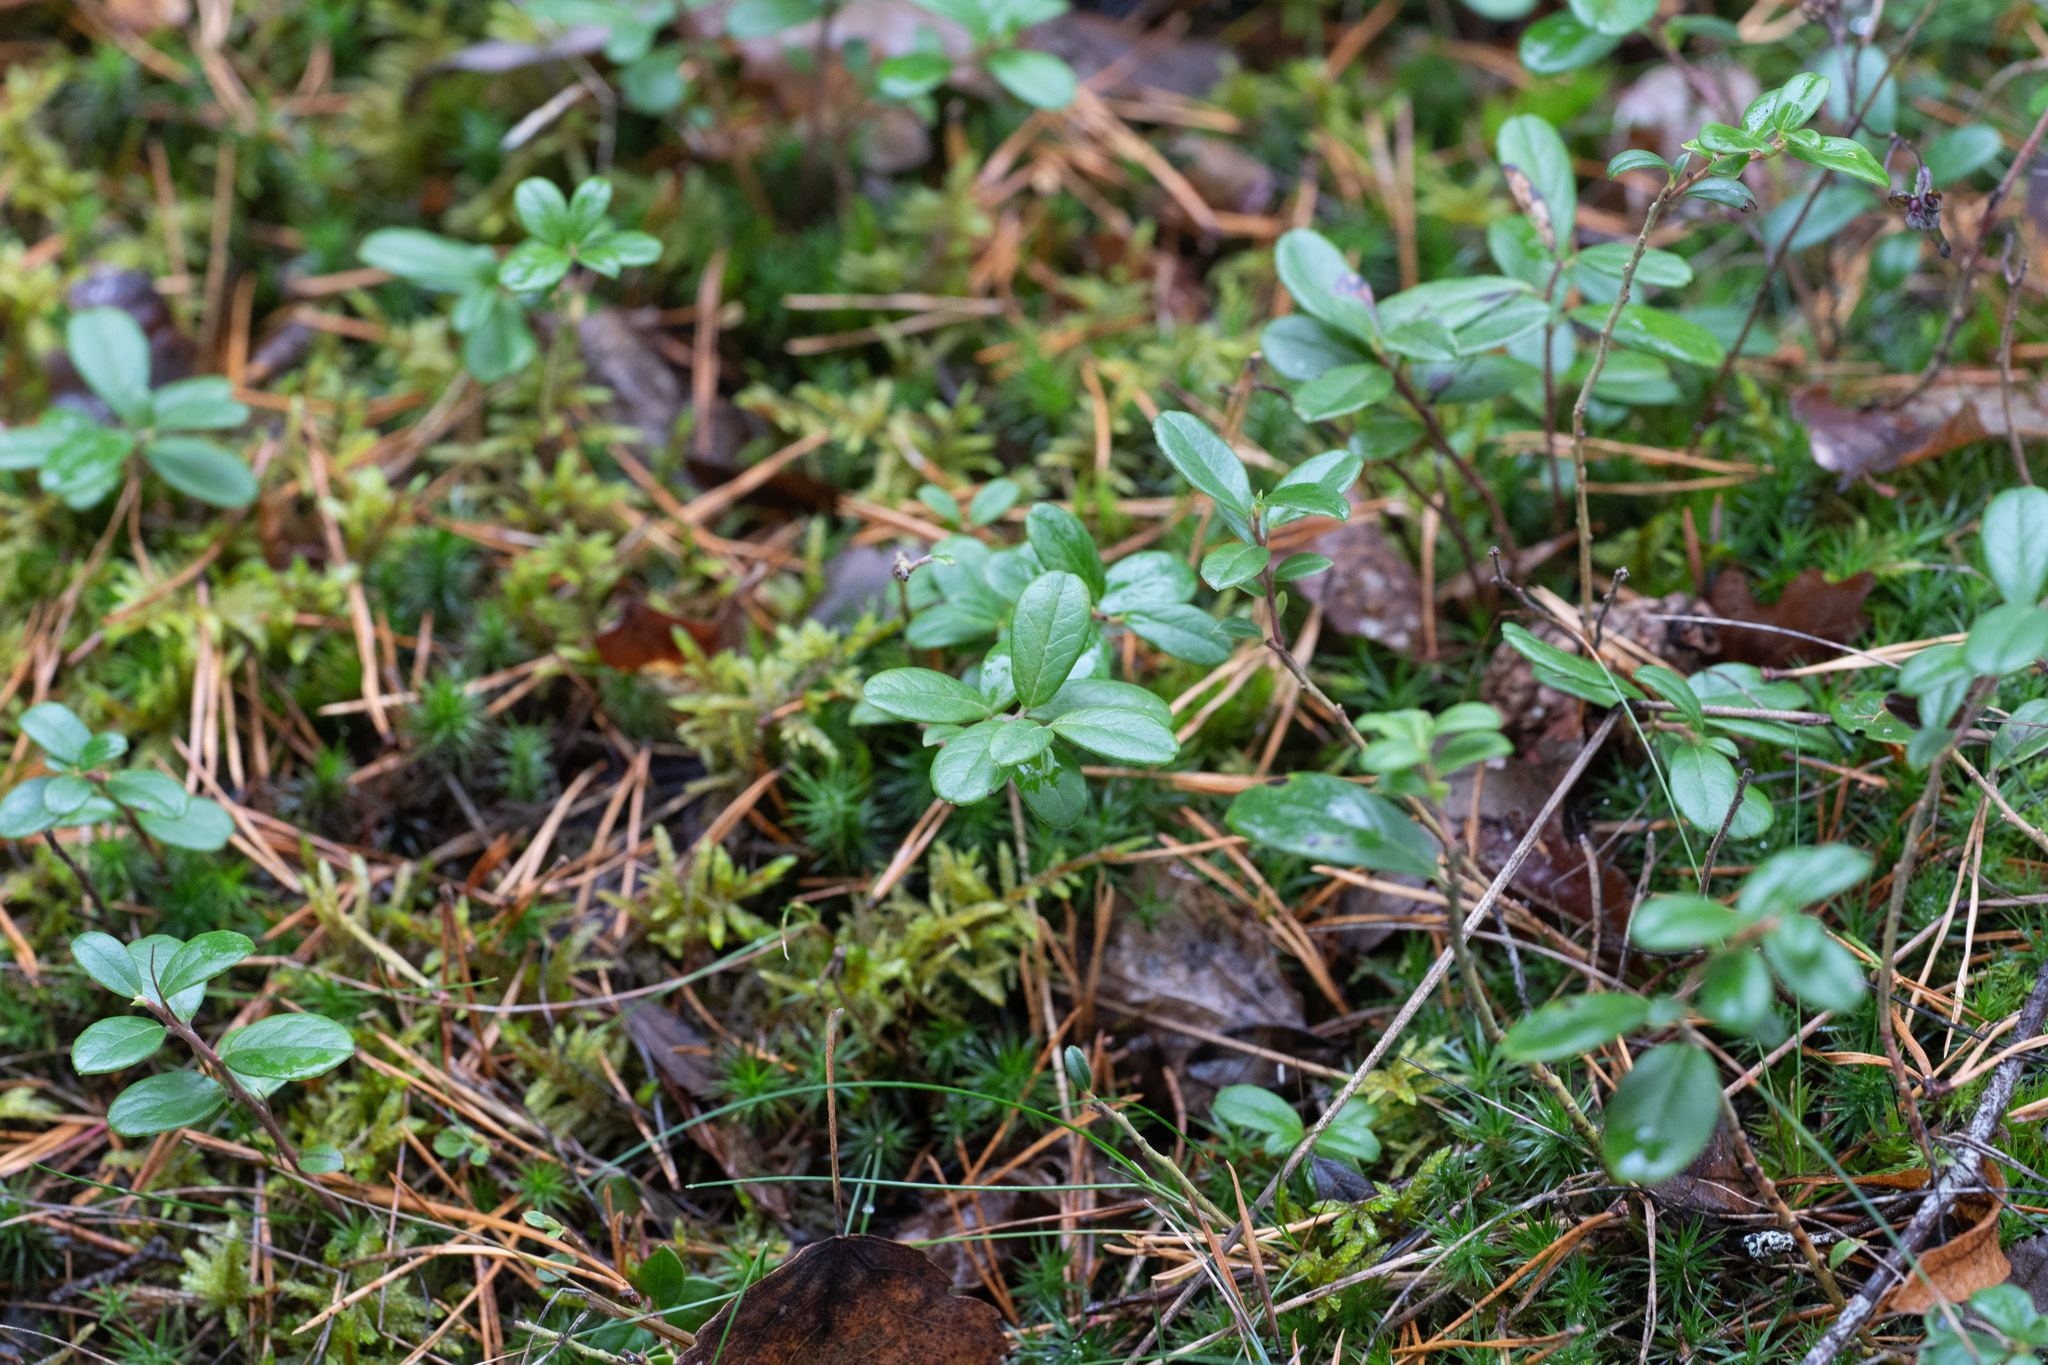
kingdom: Plantae
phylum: Tracheophyta
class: Magnoliopsida
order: Ericales
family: Ericaceae
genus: Vaccinium
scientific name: Vaccinium vitis-idaea
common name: Cowberry
